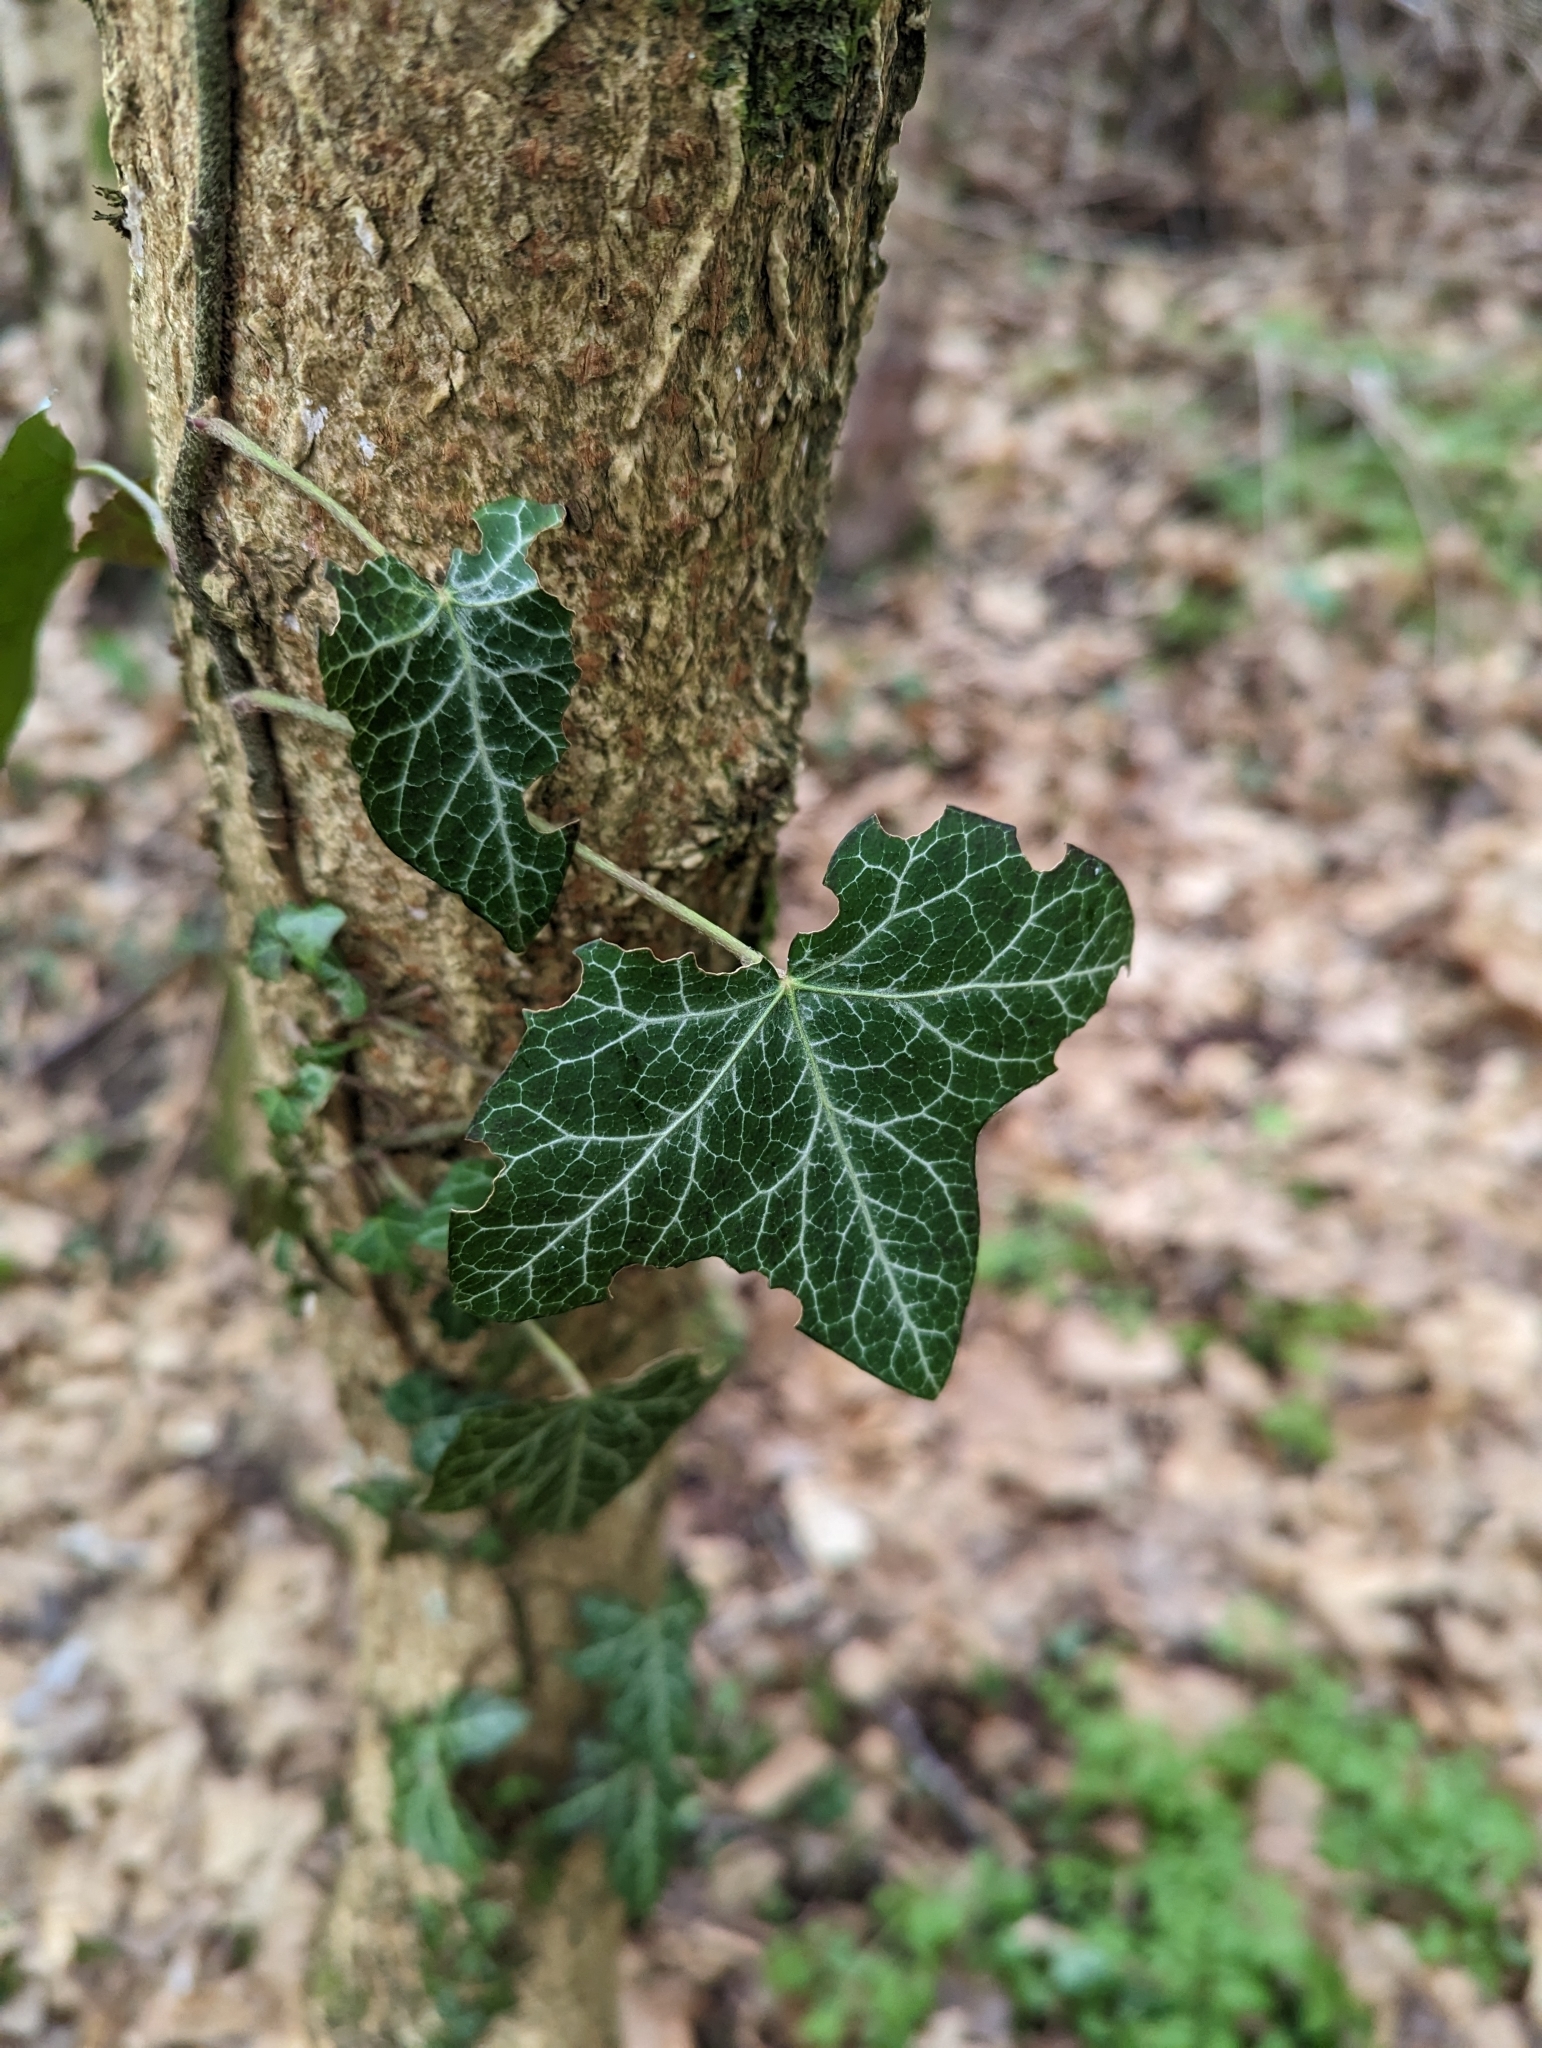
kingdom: Plantae
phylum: Tracheophyta
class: Magnoliopsida
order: Apiales
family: Araliaceae
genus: Hedera
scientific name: Hedera helix
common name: Ivy
